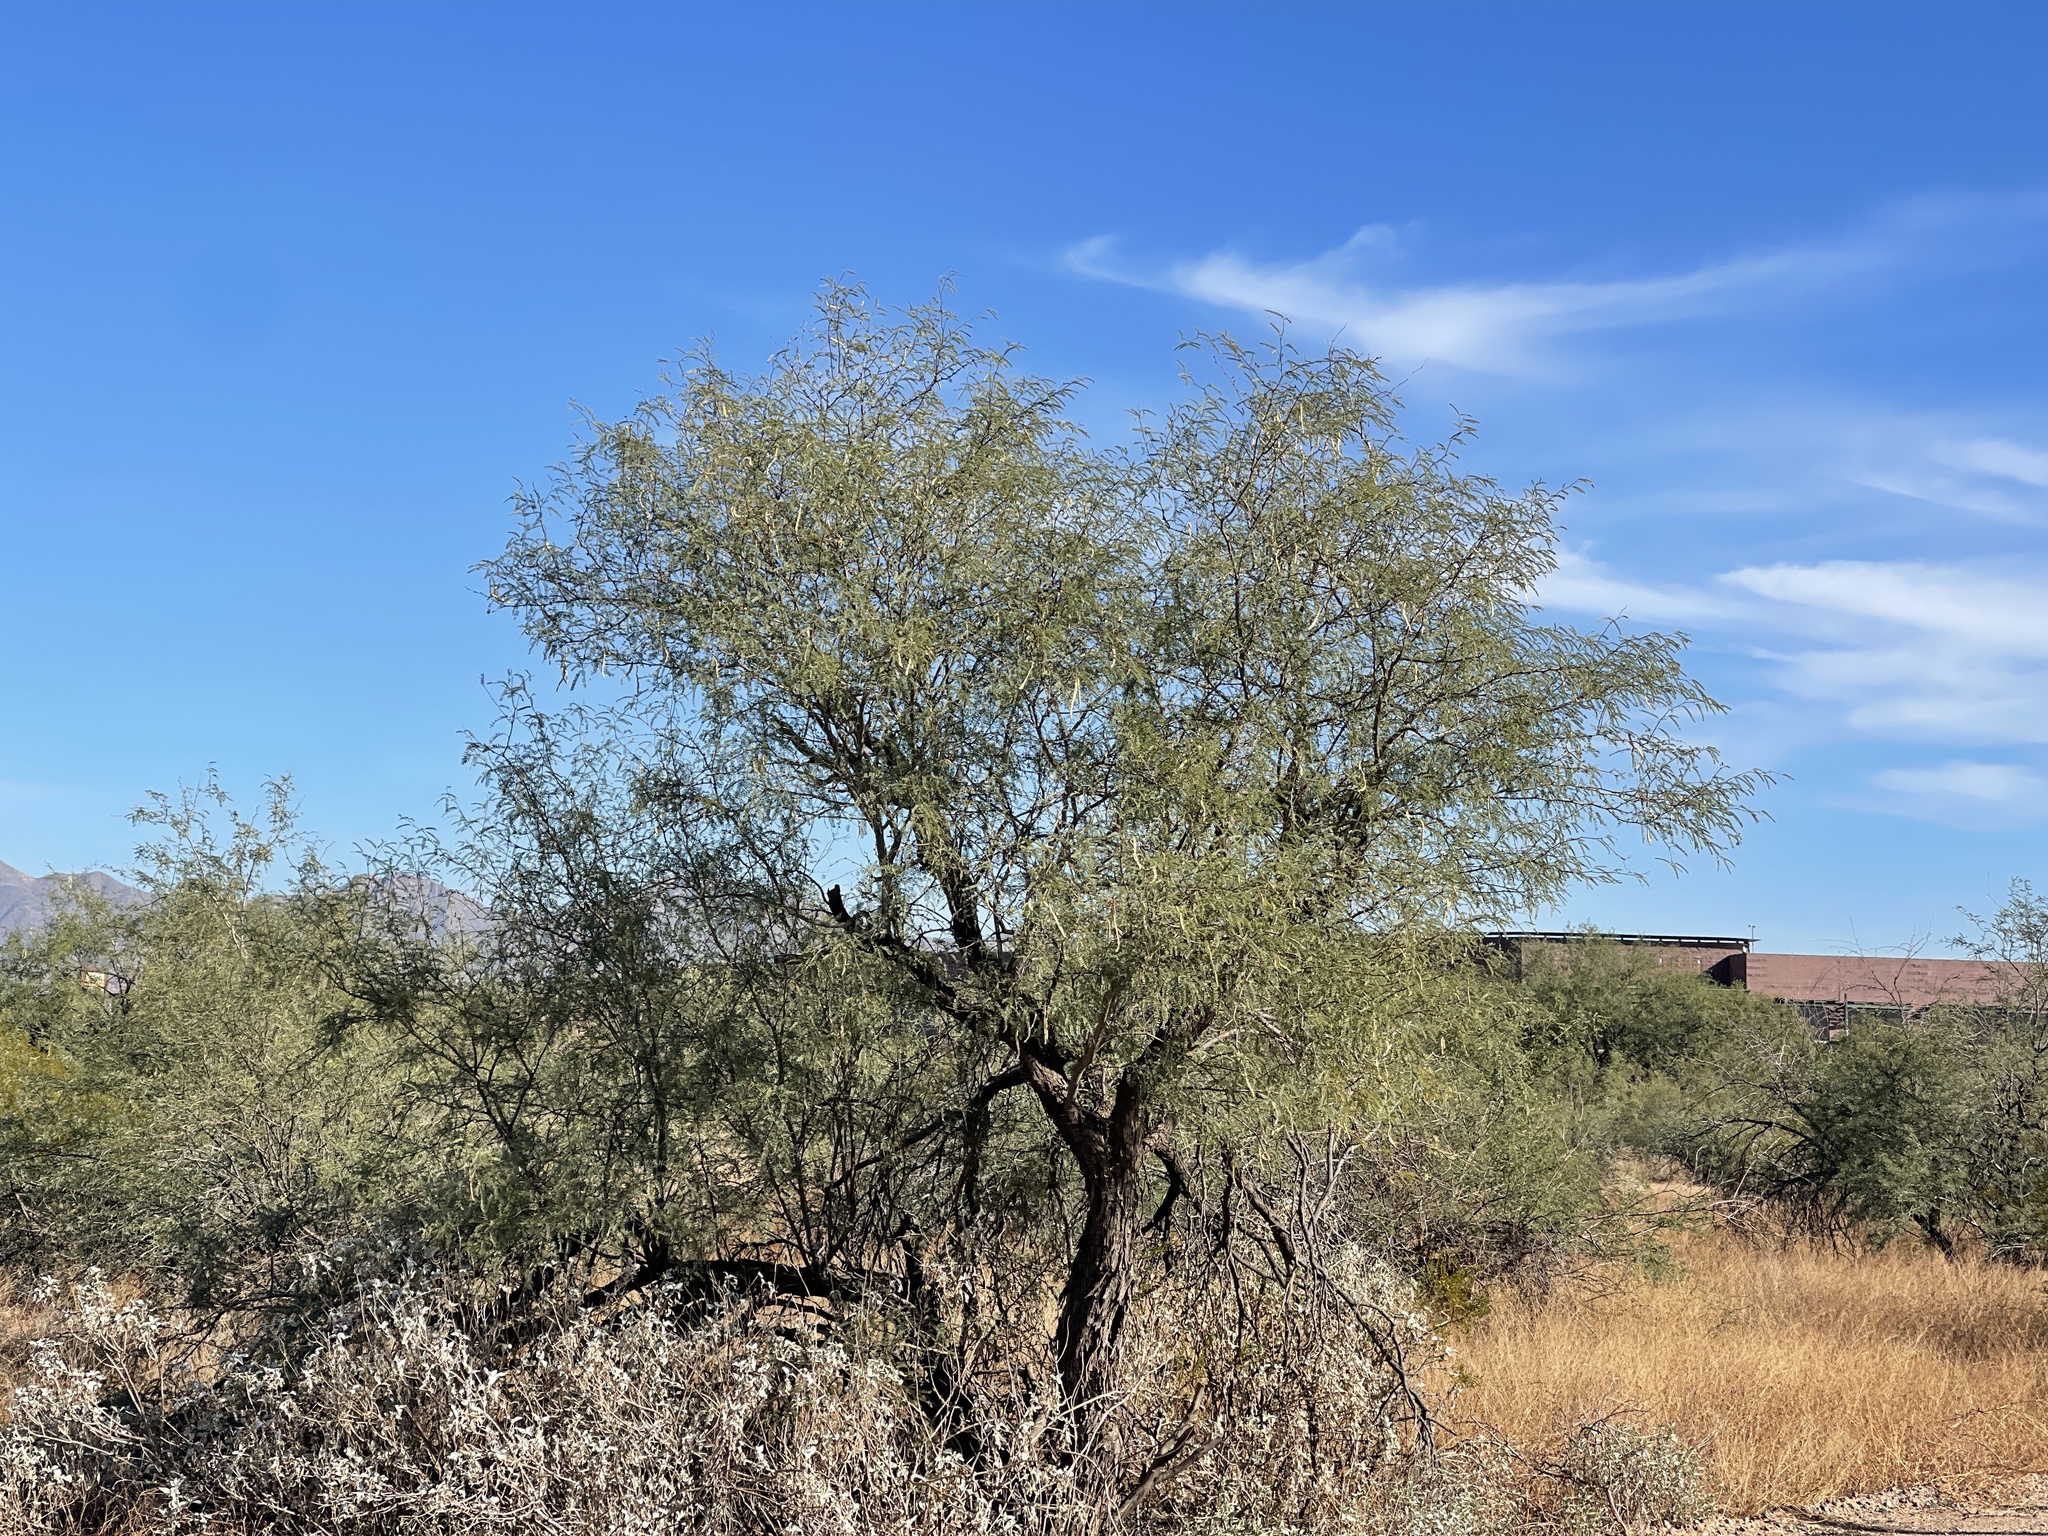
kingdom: Plantae
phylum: Tracheophyta
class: Magnoliopsida
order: Fabales
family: Fabaceae
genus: Prosopis
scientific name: Prosopis velutina
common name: Velvet mesquite
